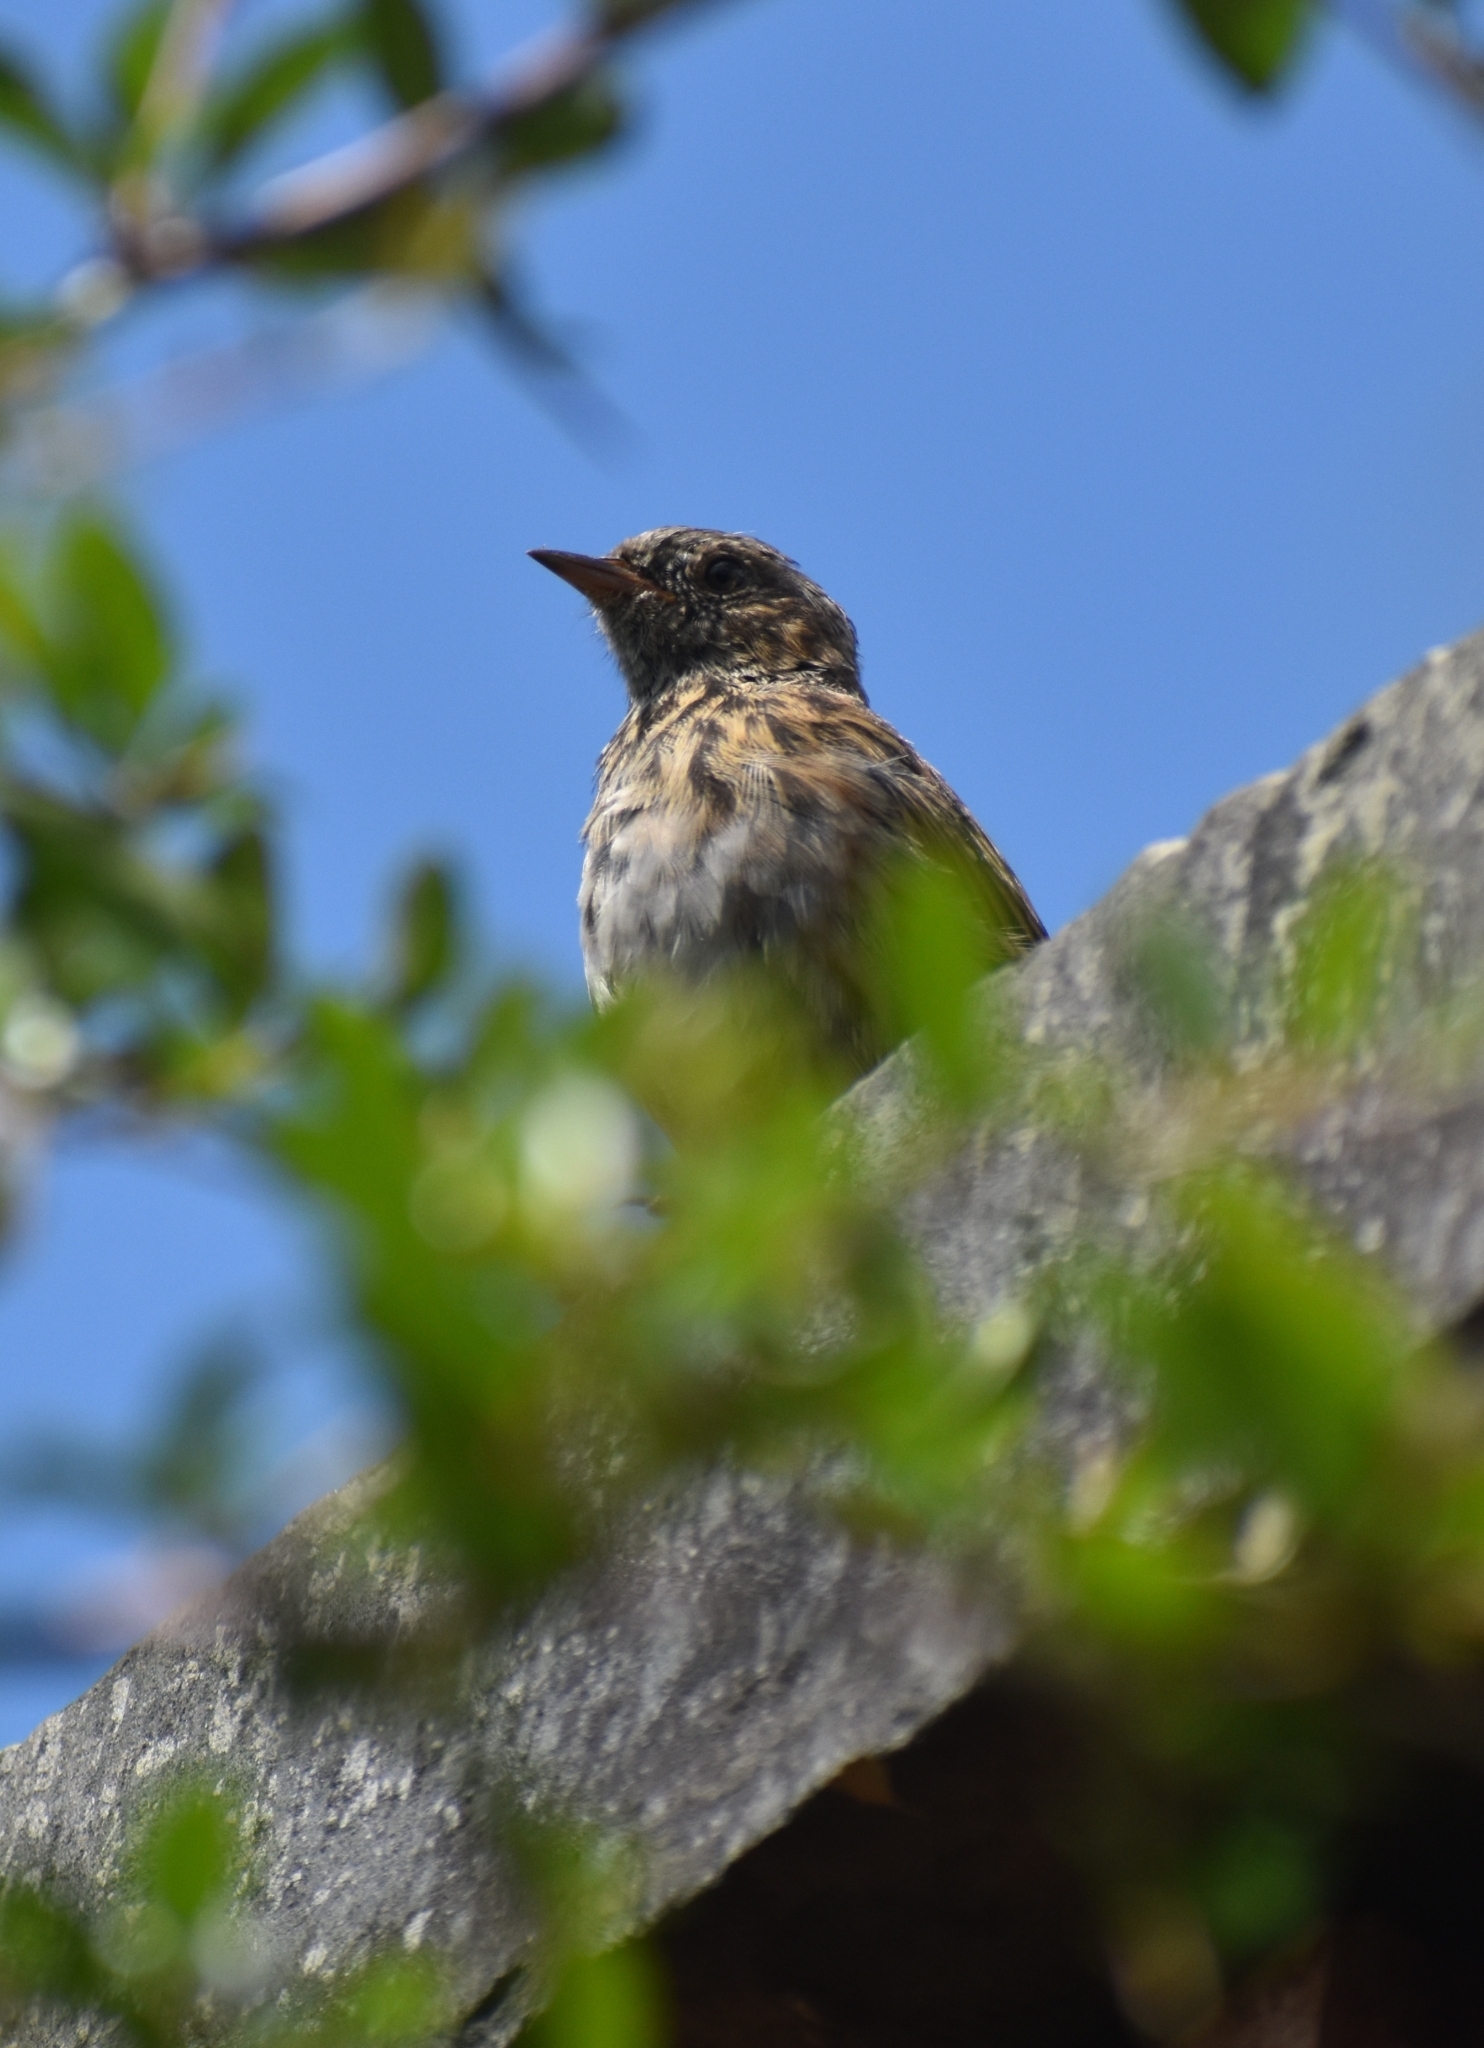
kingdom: Animalia
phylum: Chordata
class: Aves
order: Passeriformes
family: Prunellidae
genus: Prunella
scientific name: Prunella modularis
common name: Dunnock
